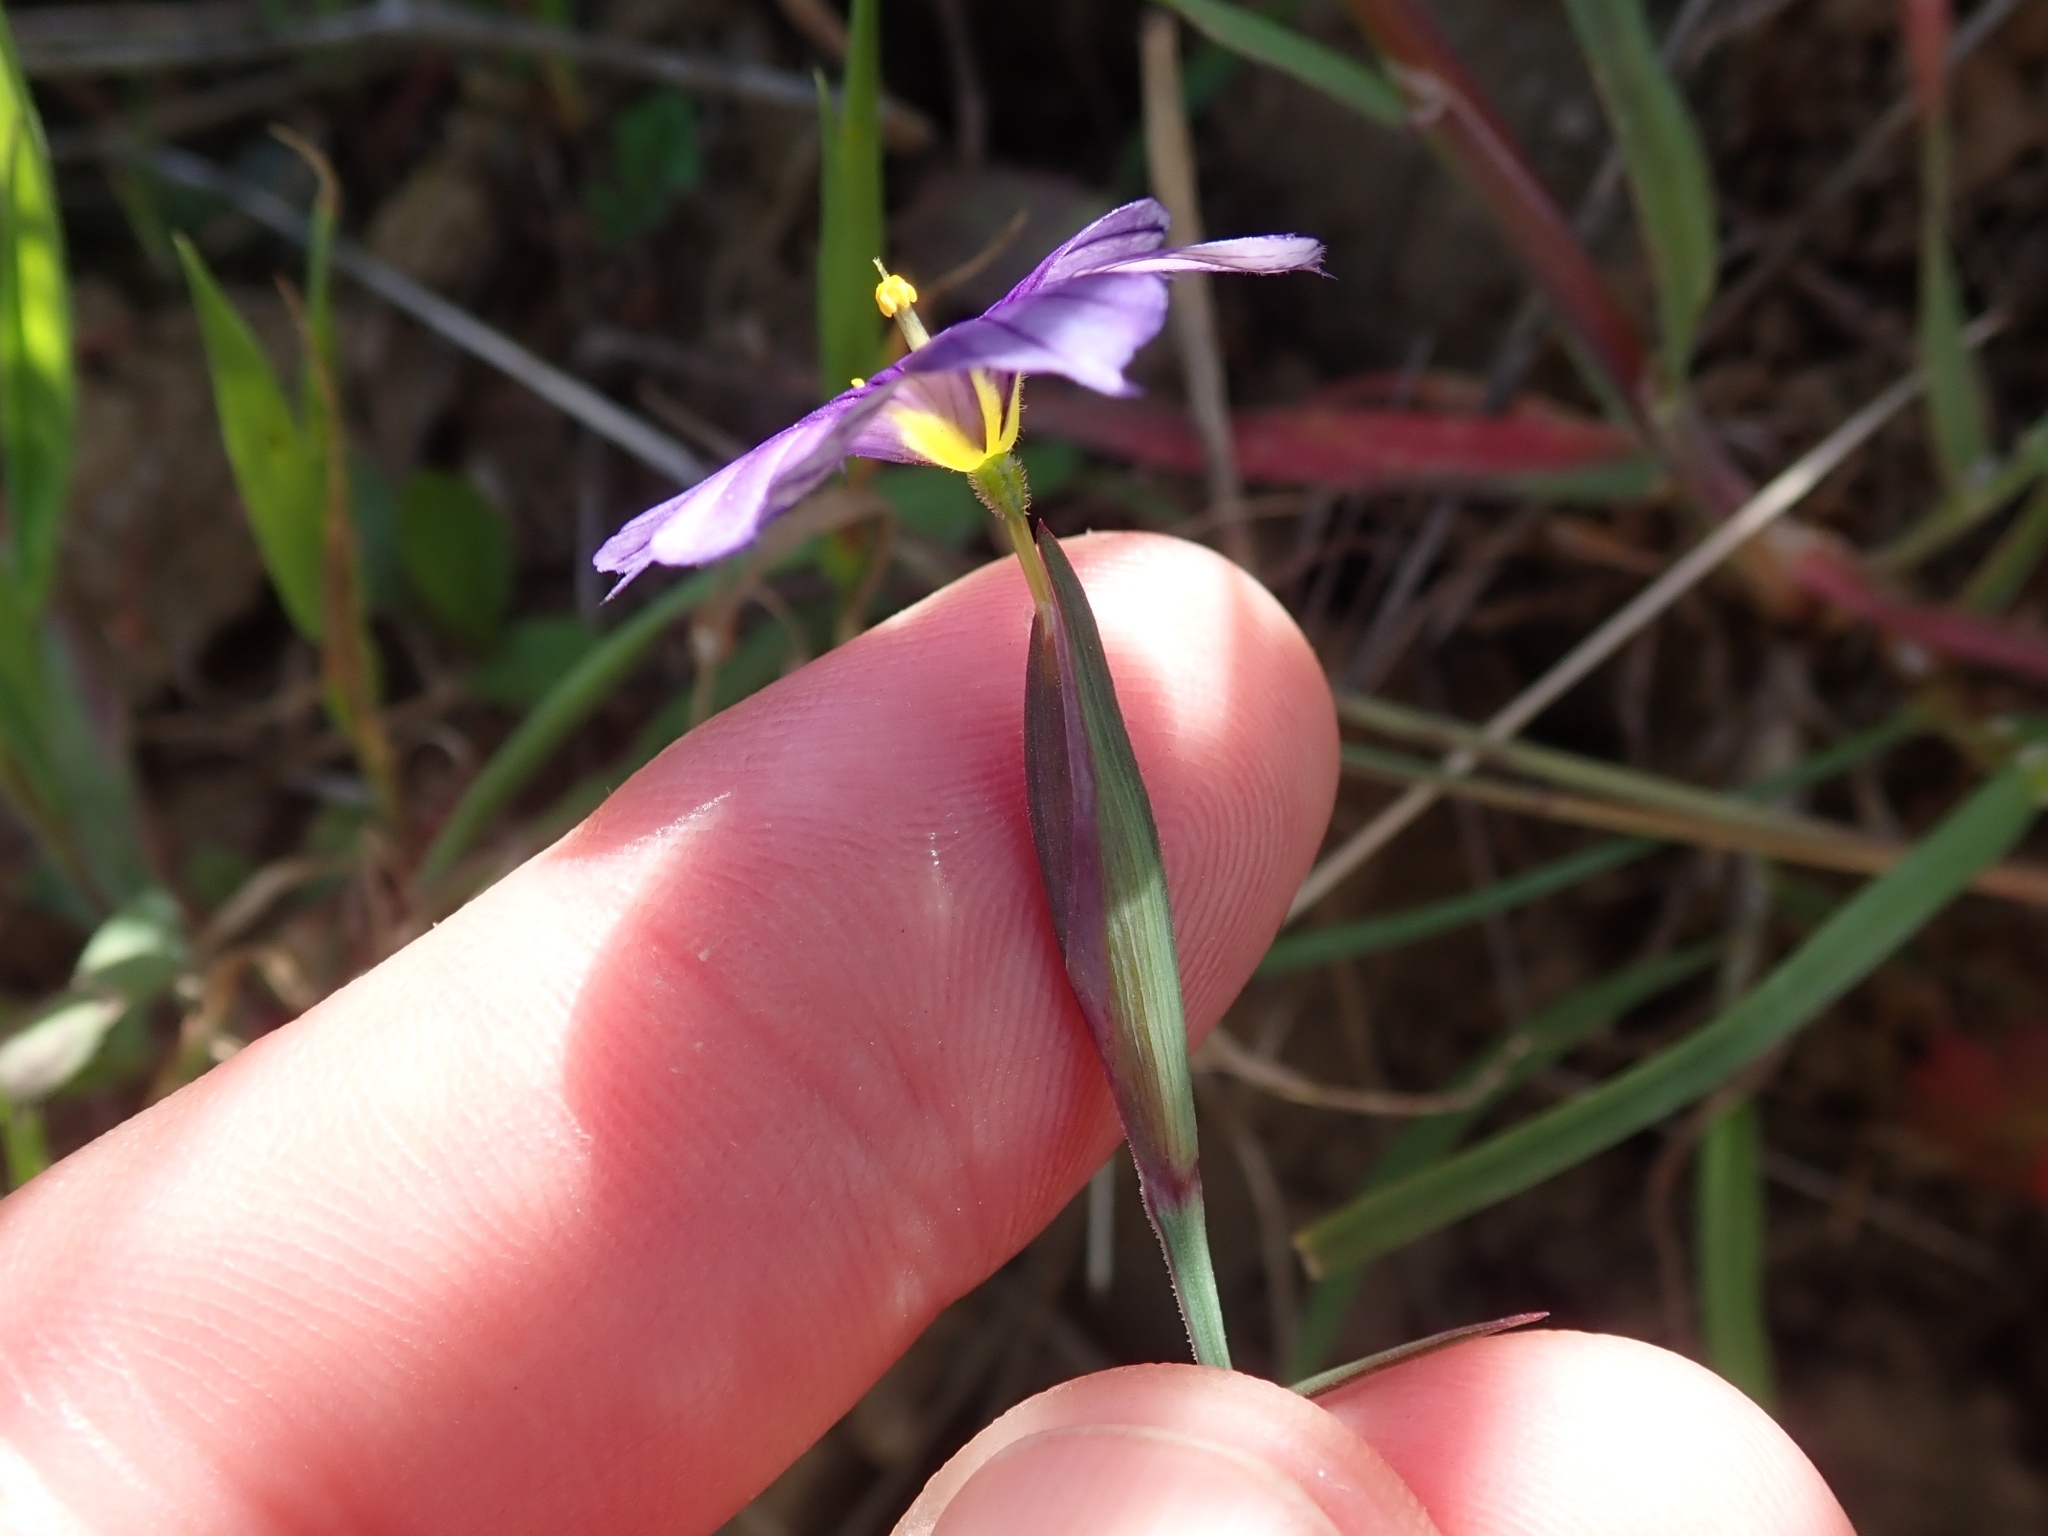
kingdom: Plantae
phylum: Tracheophyta
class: Liliopsida
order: Asparagales
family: Iridaceae
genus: Sisyrinchium
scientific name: Sisyrinchium bellum
